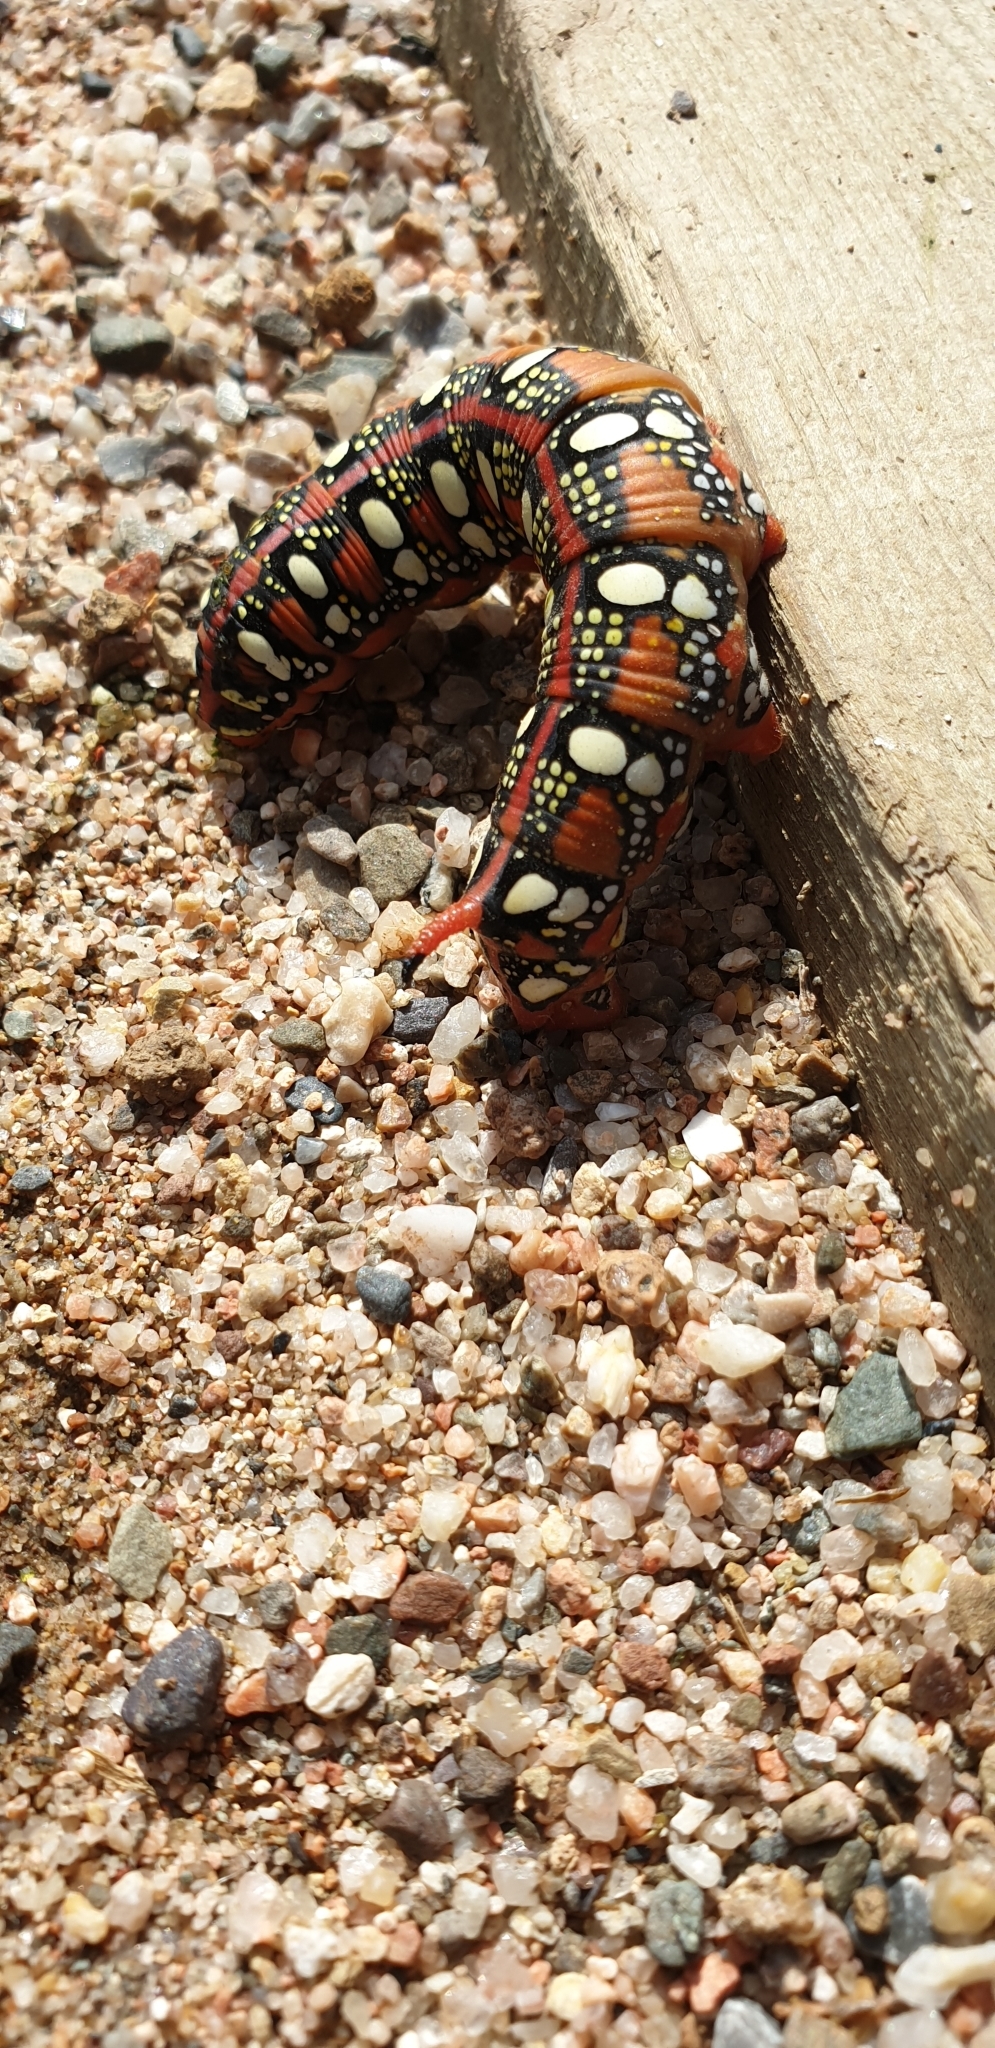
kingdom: Animalia
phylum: Arthropoda
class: Insecta
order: Lepidoptera
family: Sphingidae
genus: Hyles
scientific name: Hyles euphorbiae
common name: Spurge hawk-moth
